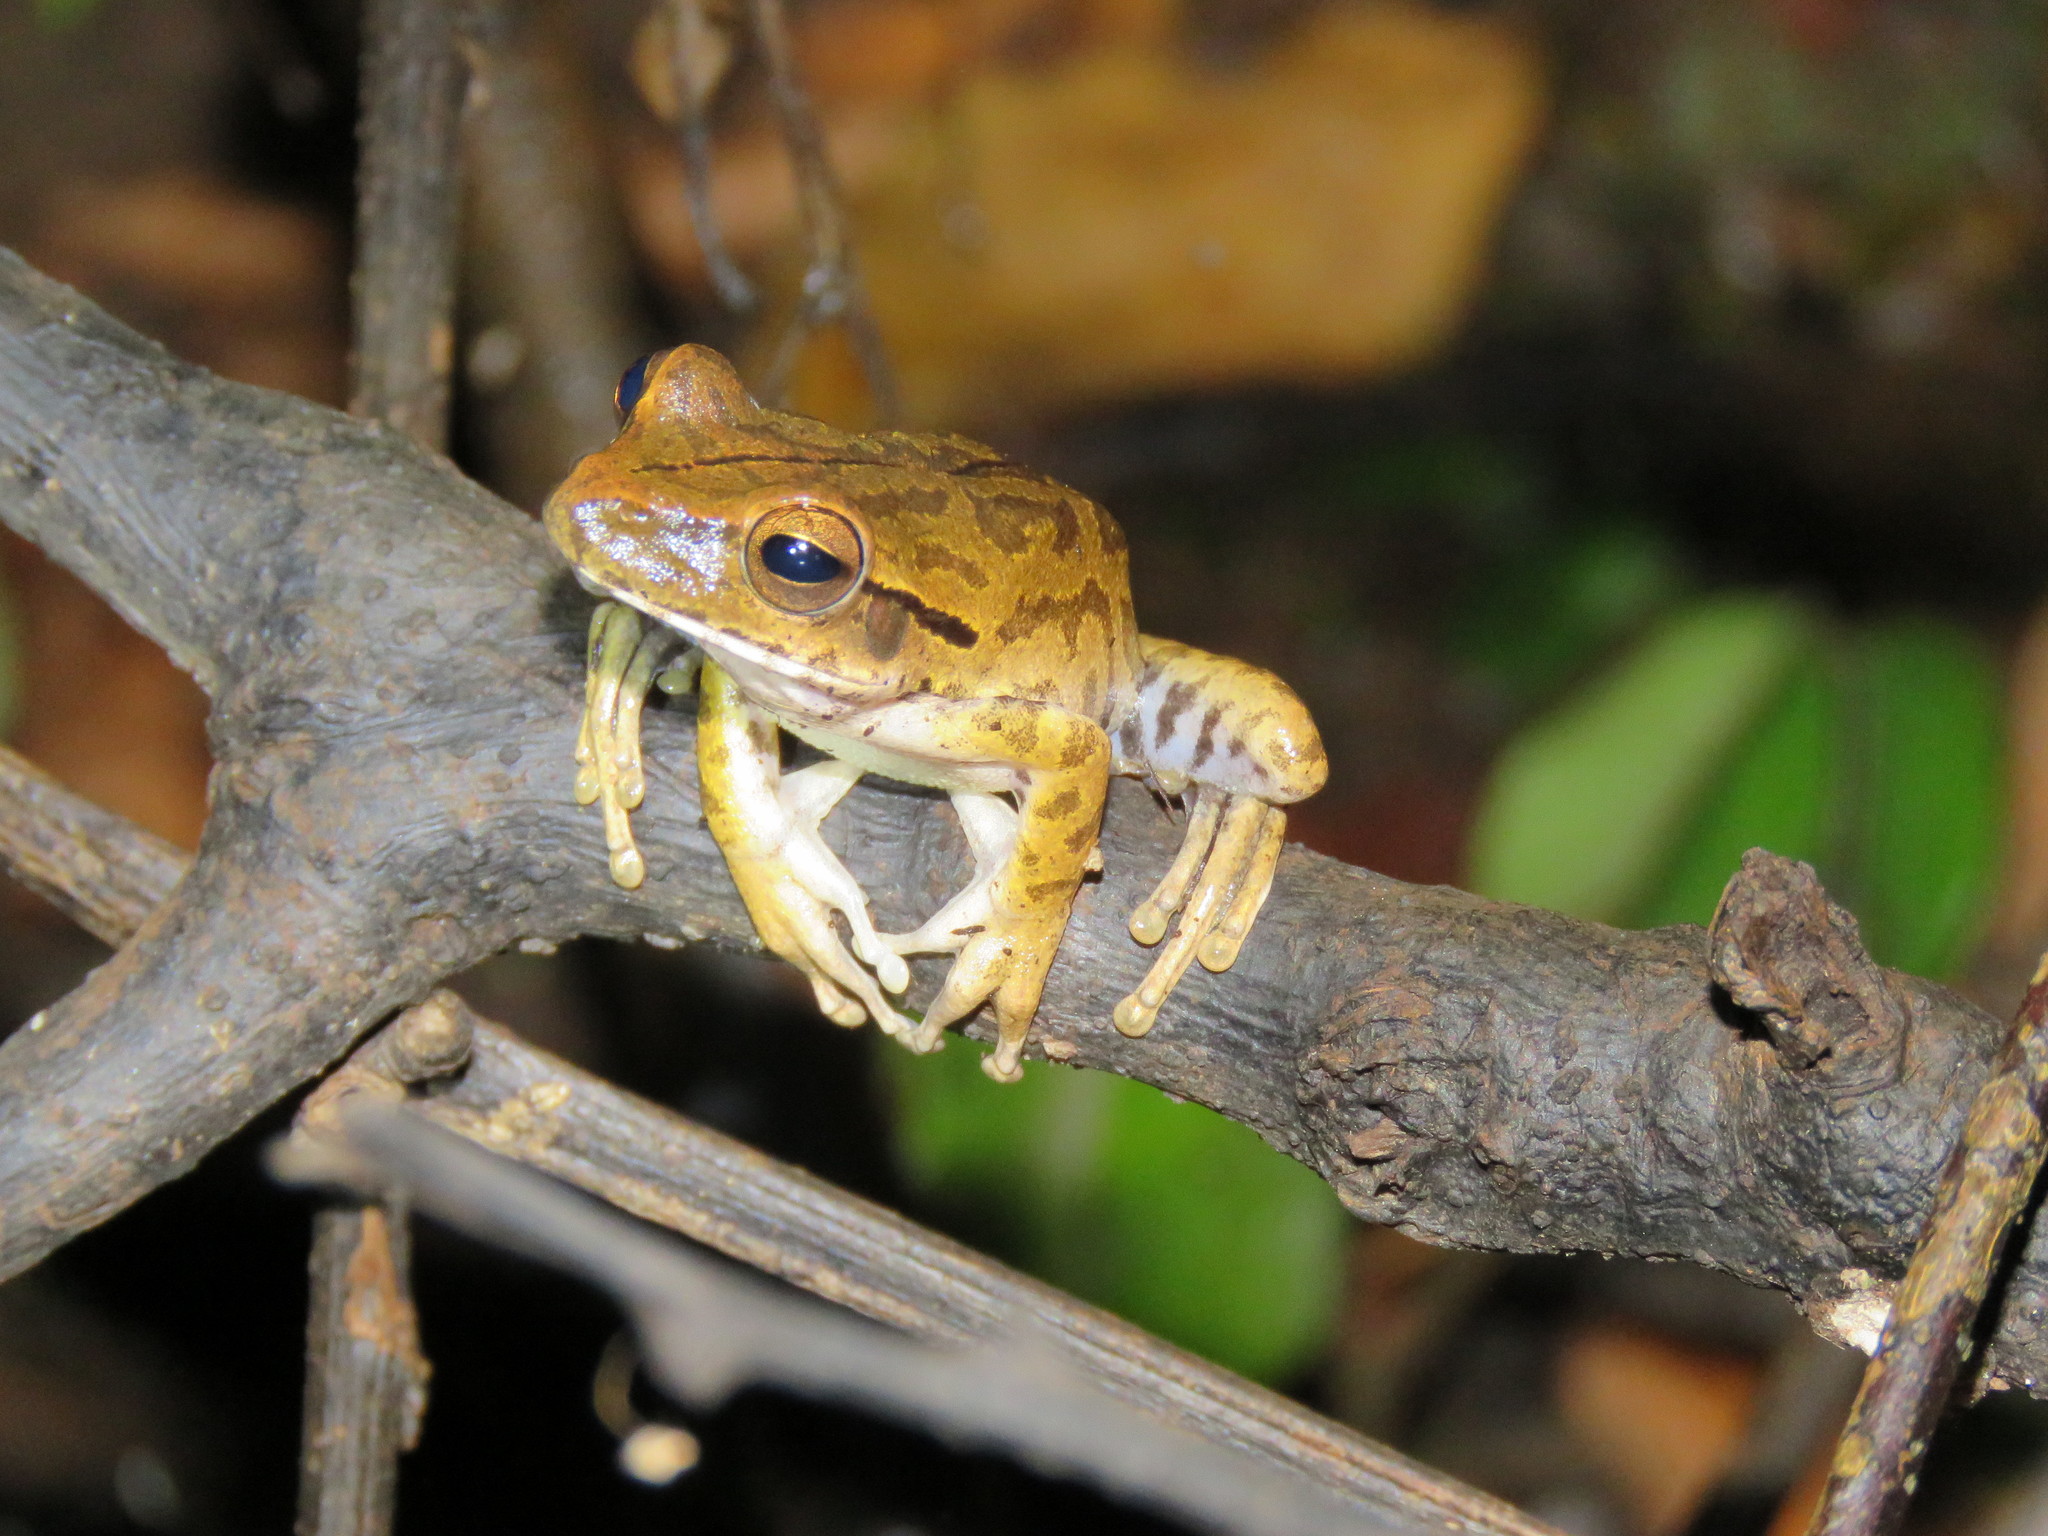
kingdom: Animalia
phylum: Chordata
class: Amphibia
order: Anura
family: Hylidae
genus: Boana
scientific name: Boana raniceps
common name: Chaco treefrog
